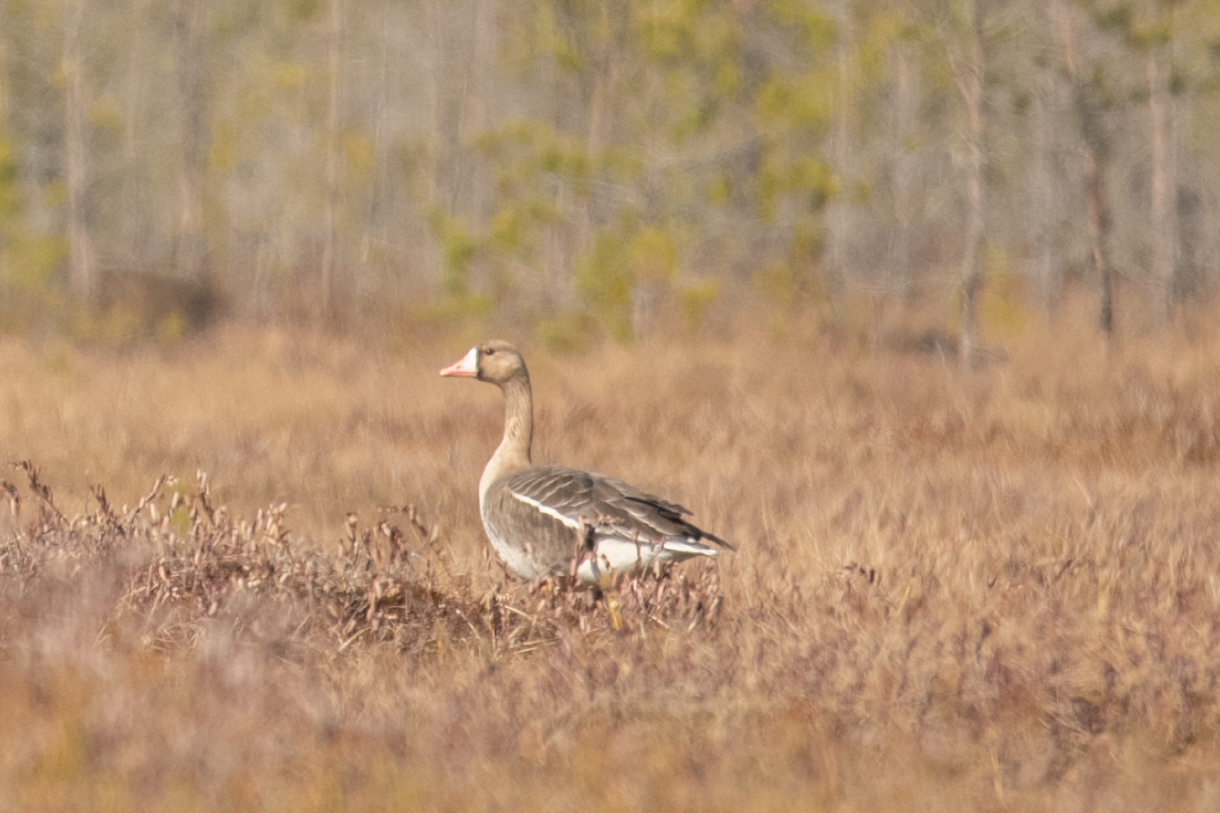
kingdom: Animalia
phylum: Chordata
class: Aves
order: Anseriformes
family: Anatidae
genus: Anser
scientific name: Anser albifrons
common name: Greater white-fronted goose
